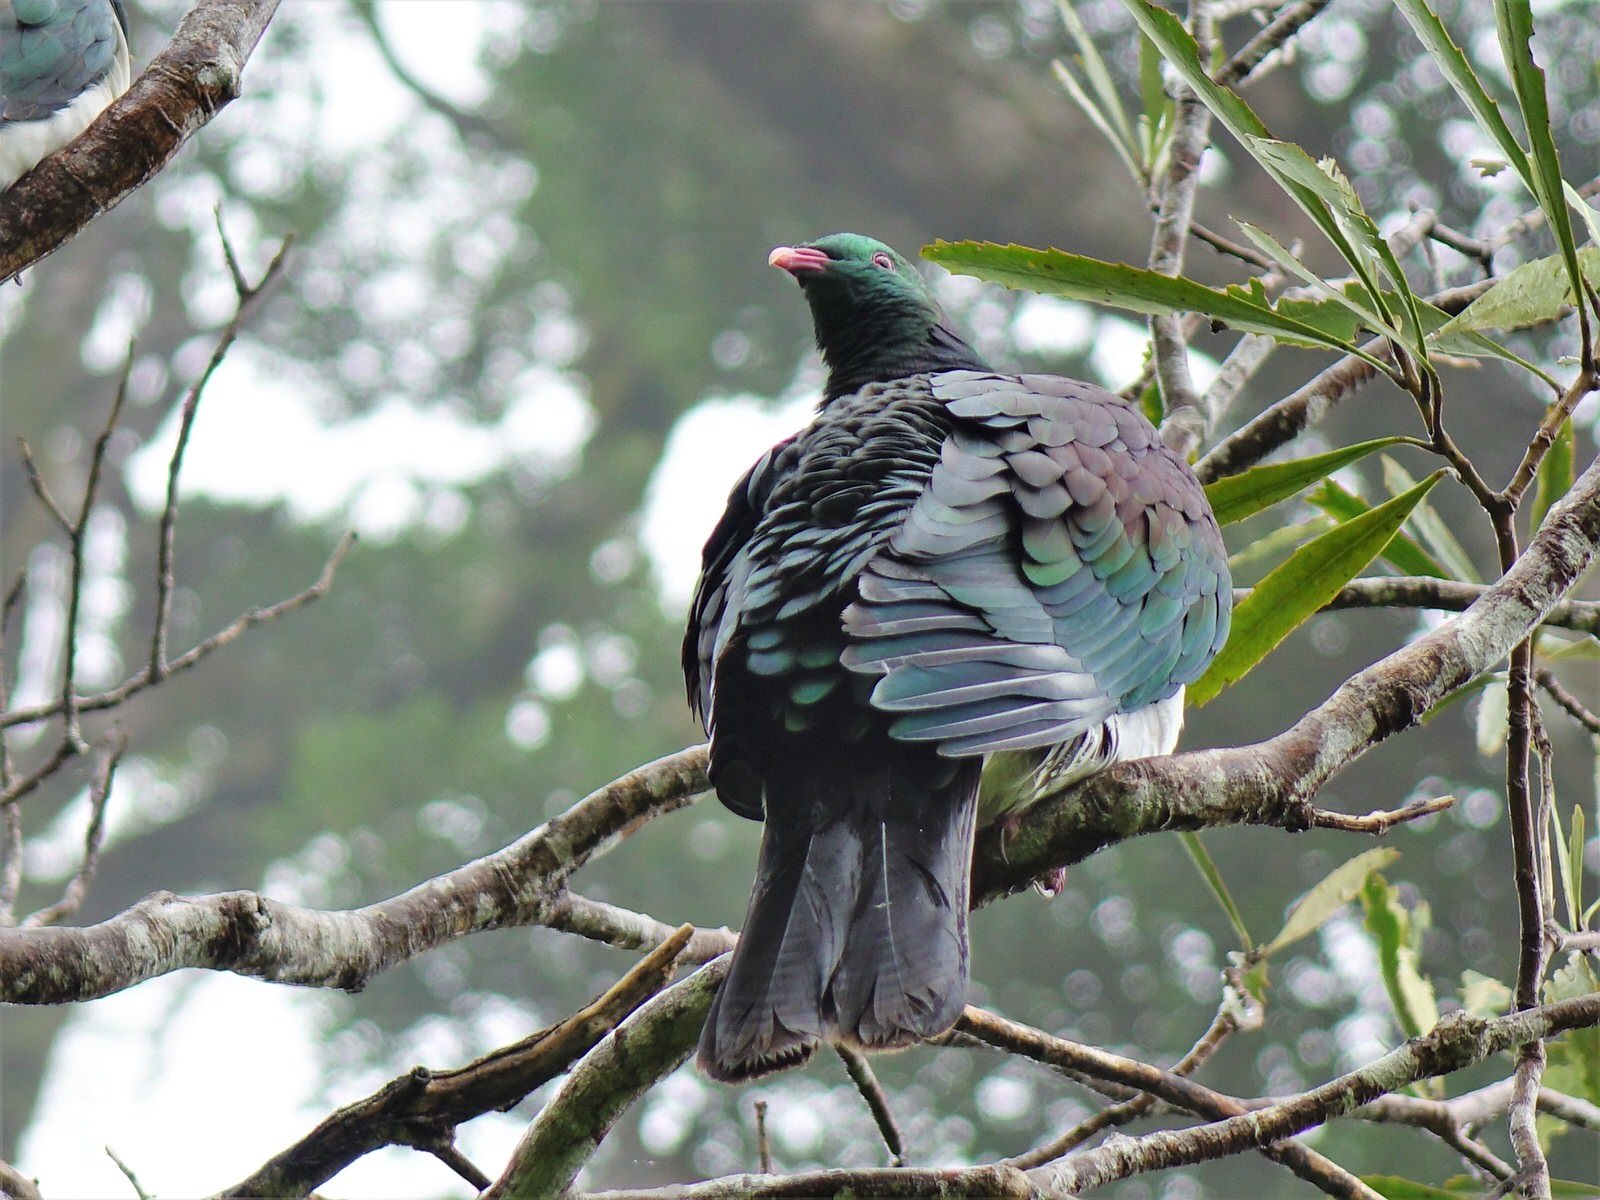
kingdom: Animalia
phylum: Chordata
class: Aves
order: Columbiformes
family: Columbidae
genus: Hemiphaga
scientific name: Hemiphaga novaeseelandiae
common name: New zealand pigeon
